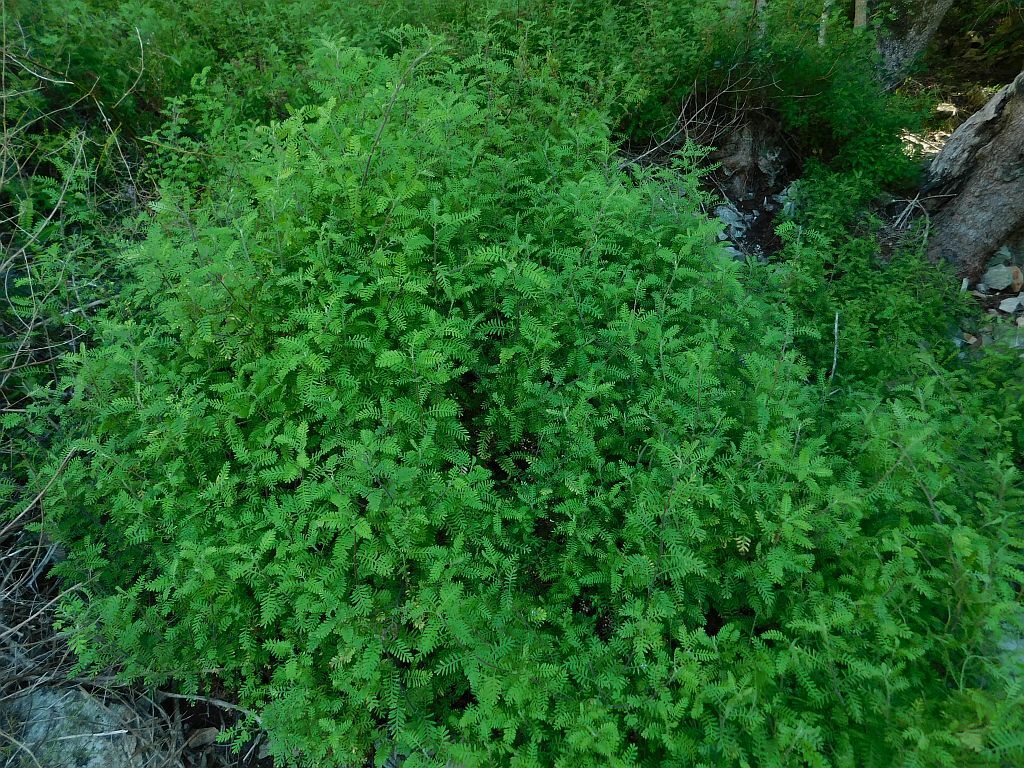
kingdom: Plantae
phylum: Tracheophyta
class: Magnoliopsida
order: Asterales
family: Asteraceae
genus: Hippia
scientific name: Hippia frutescens
